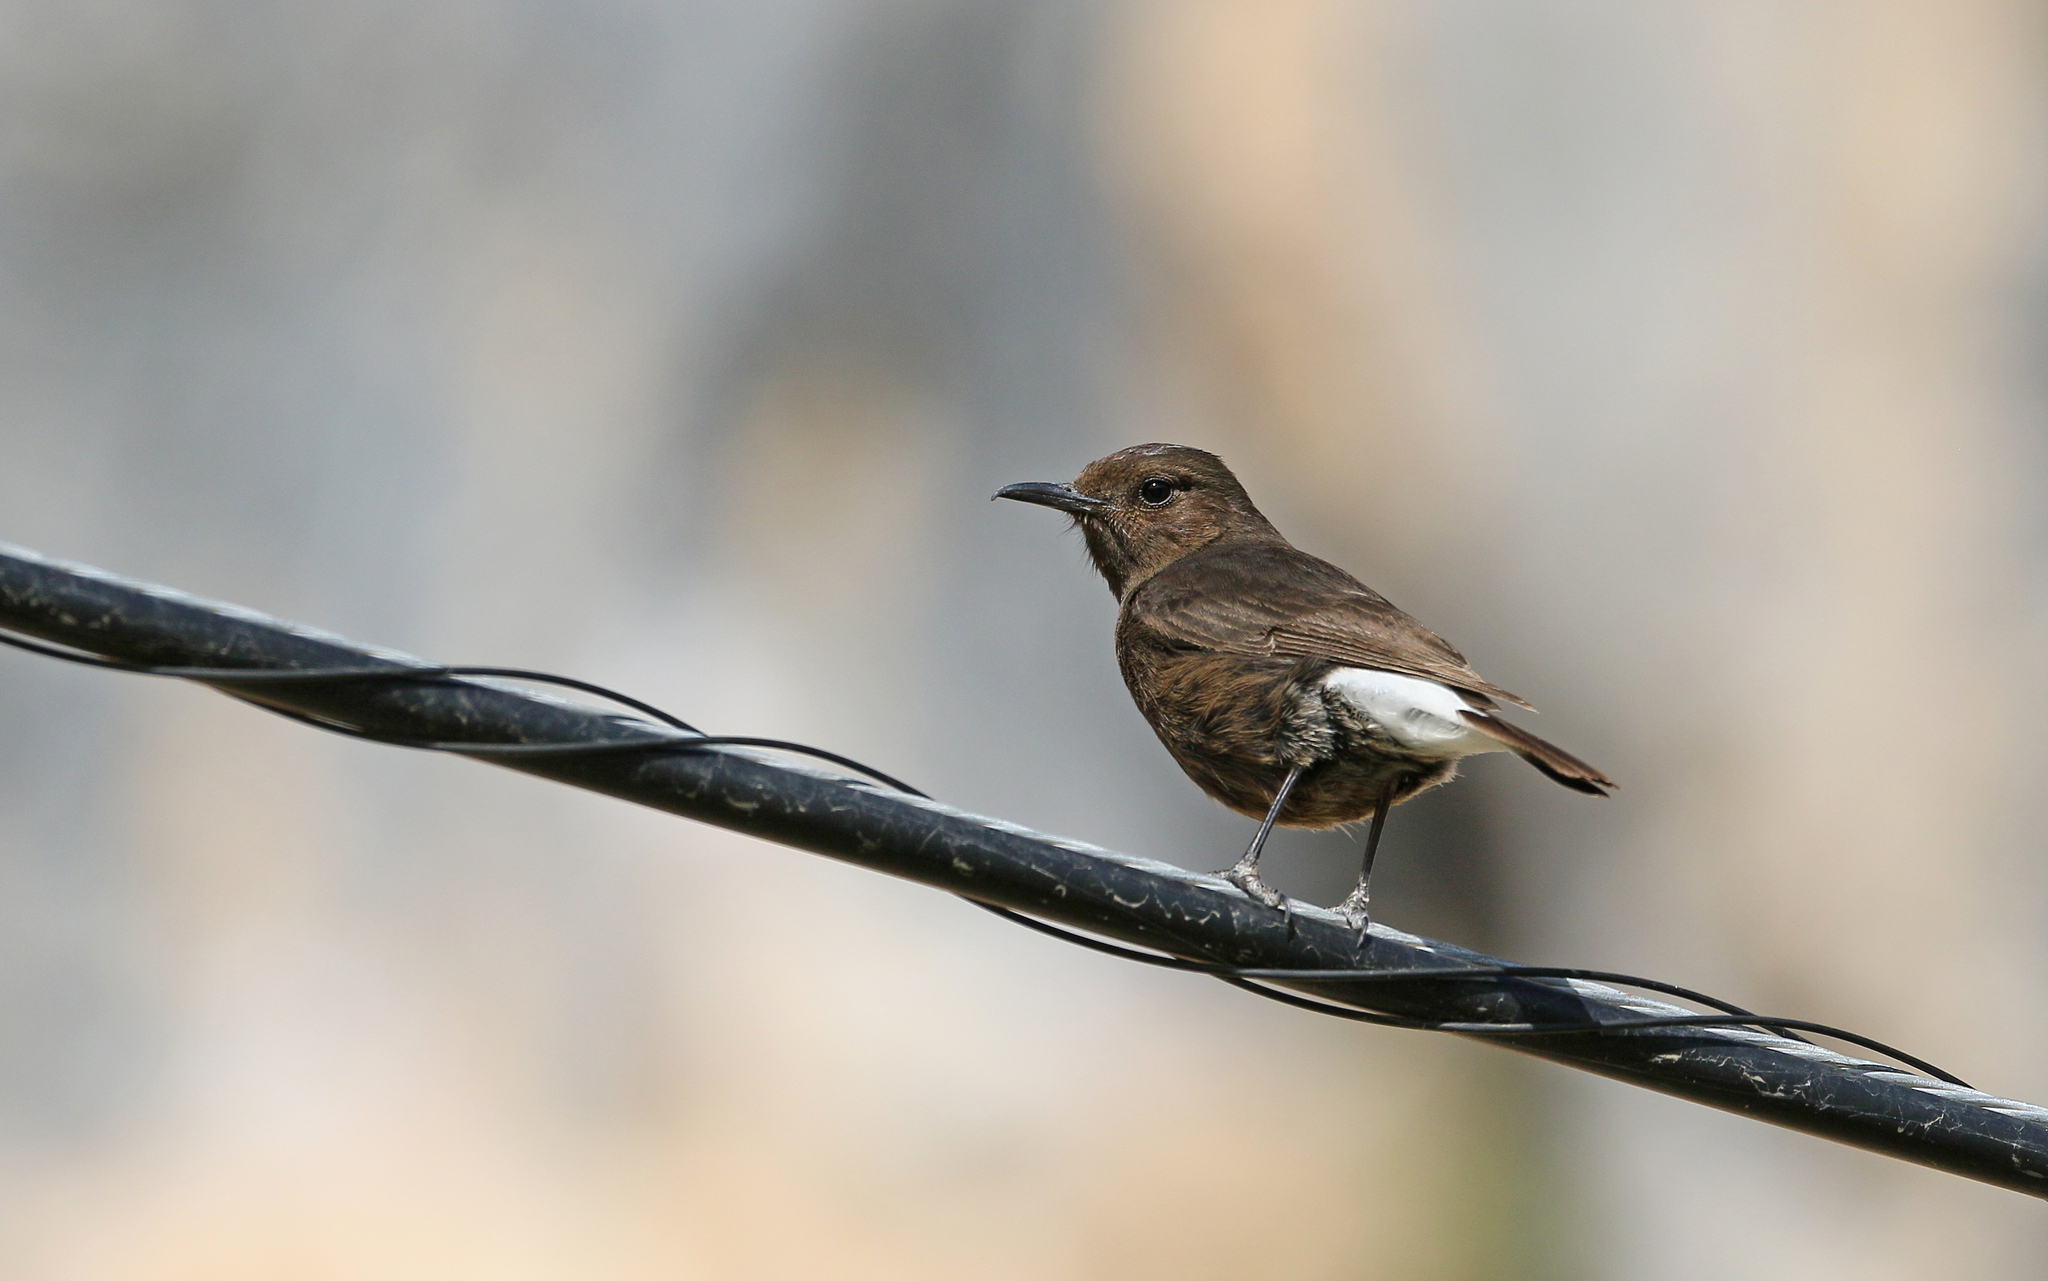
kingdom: Animalia
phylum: Chordata
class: Aves
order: Passeriformes
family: Muscicapidae
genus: Oenanthe
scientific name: Oenanthe leucura
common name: Black wheatear
